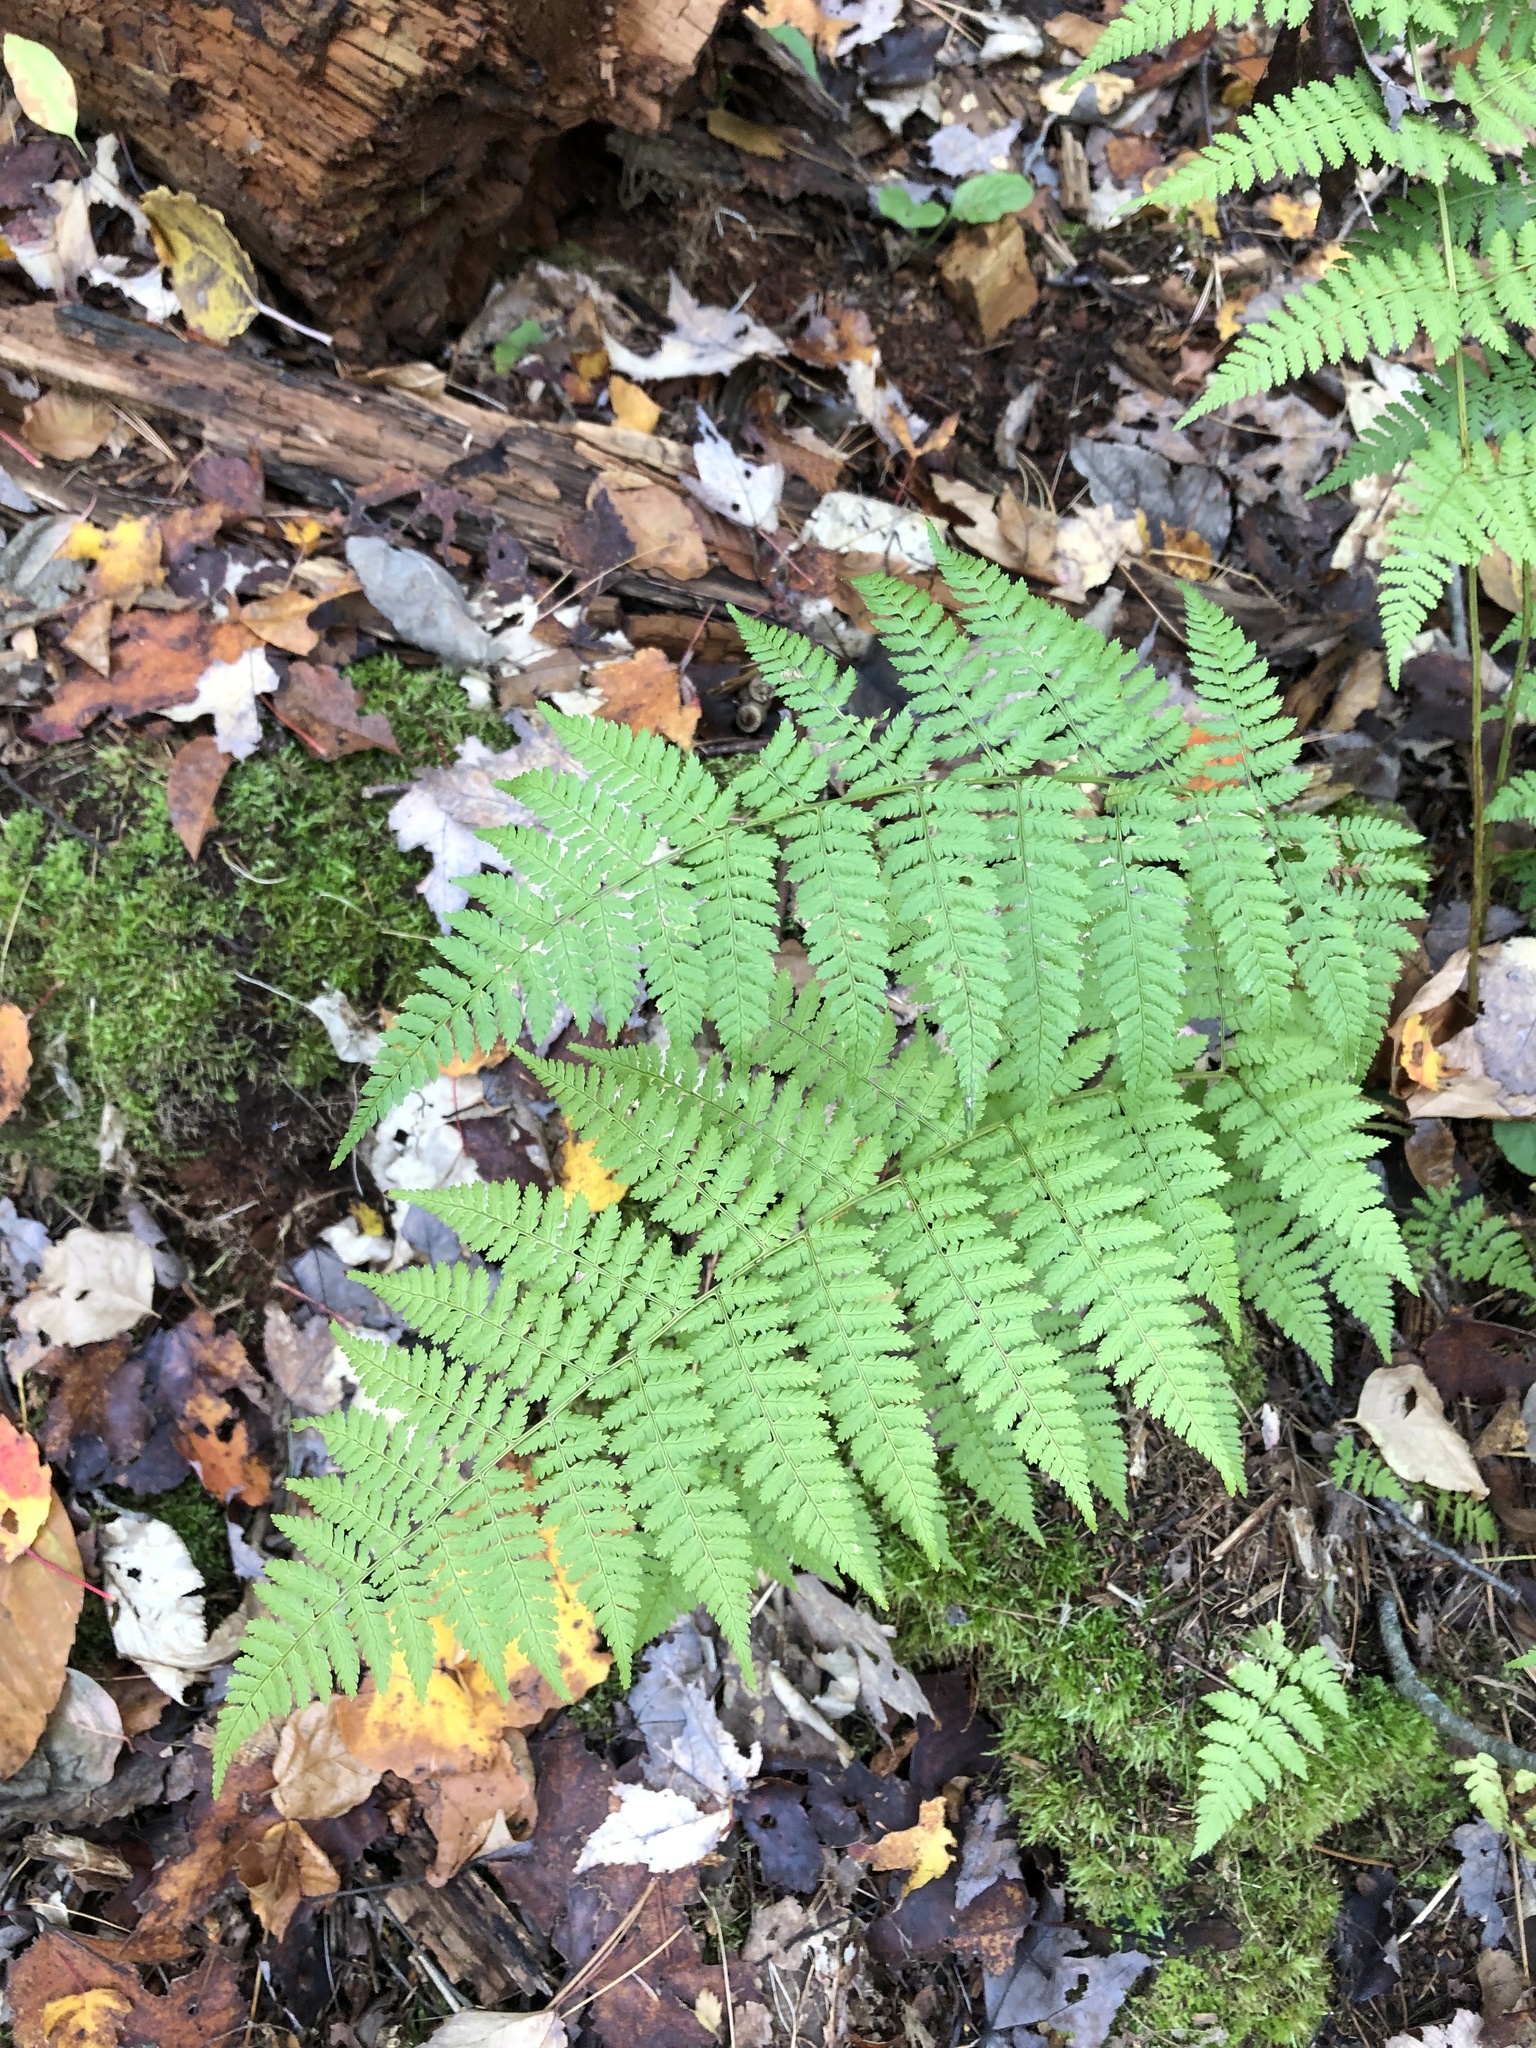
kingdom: Plantae
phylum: Tracheophyta
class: Polypodiopsida
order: Polypodiales
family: Dryopteridaceae
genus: Dryopteris
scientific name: Dryopteris intermedia
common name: Evergreen wood fern
